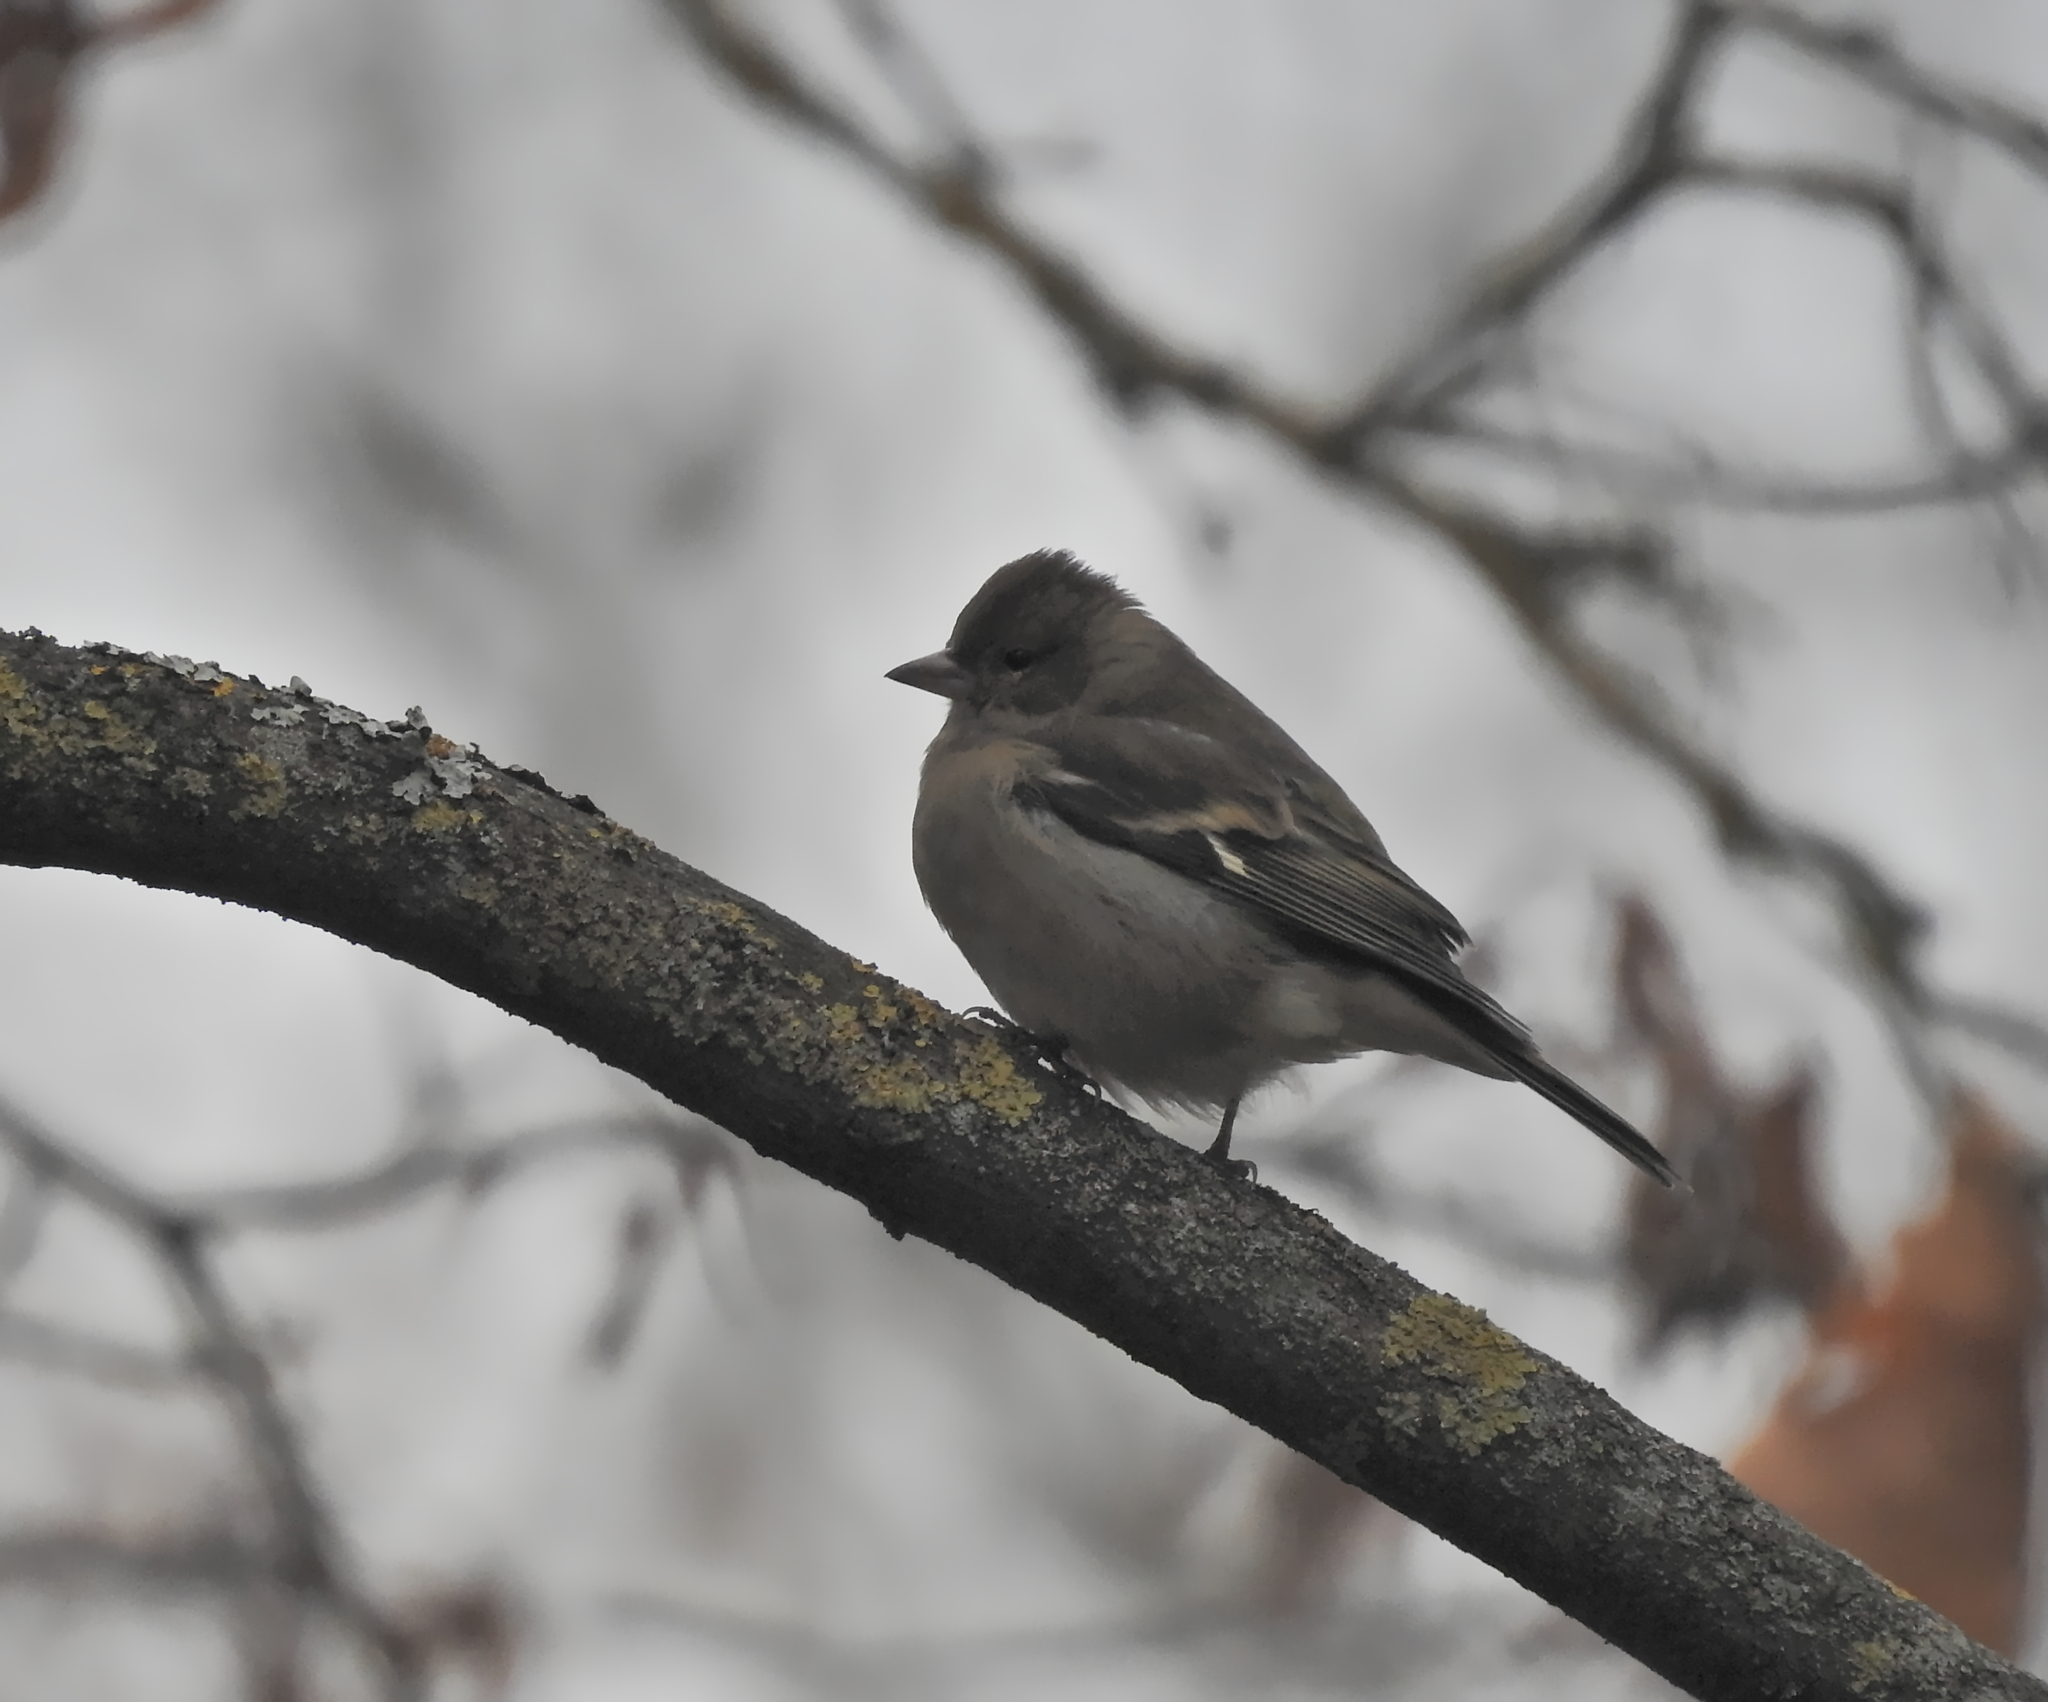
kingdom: Animalia
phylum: Chordata
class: Aves
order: Passeriformes
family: Fringillidae
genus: Fringilla
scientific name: Fringilla coelebs
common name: Common chaffinch
